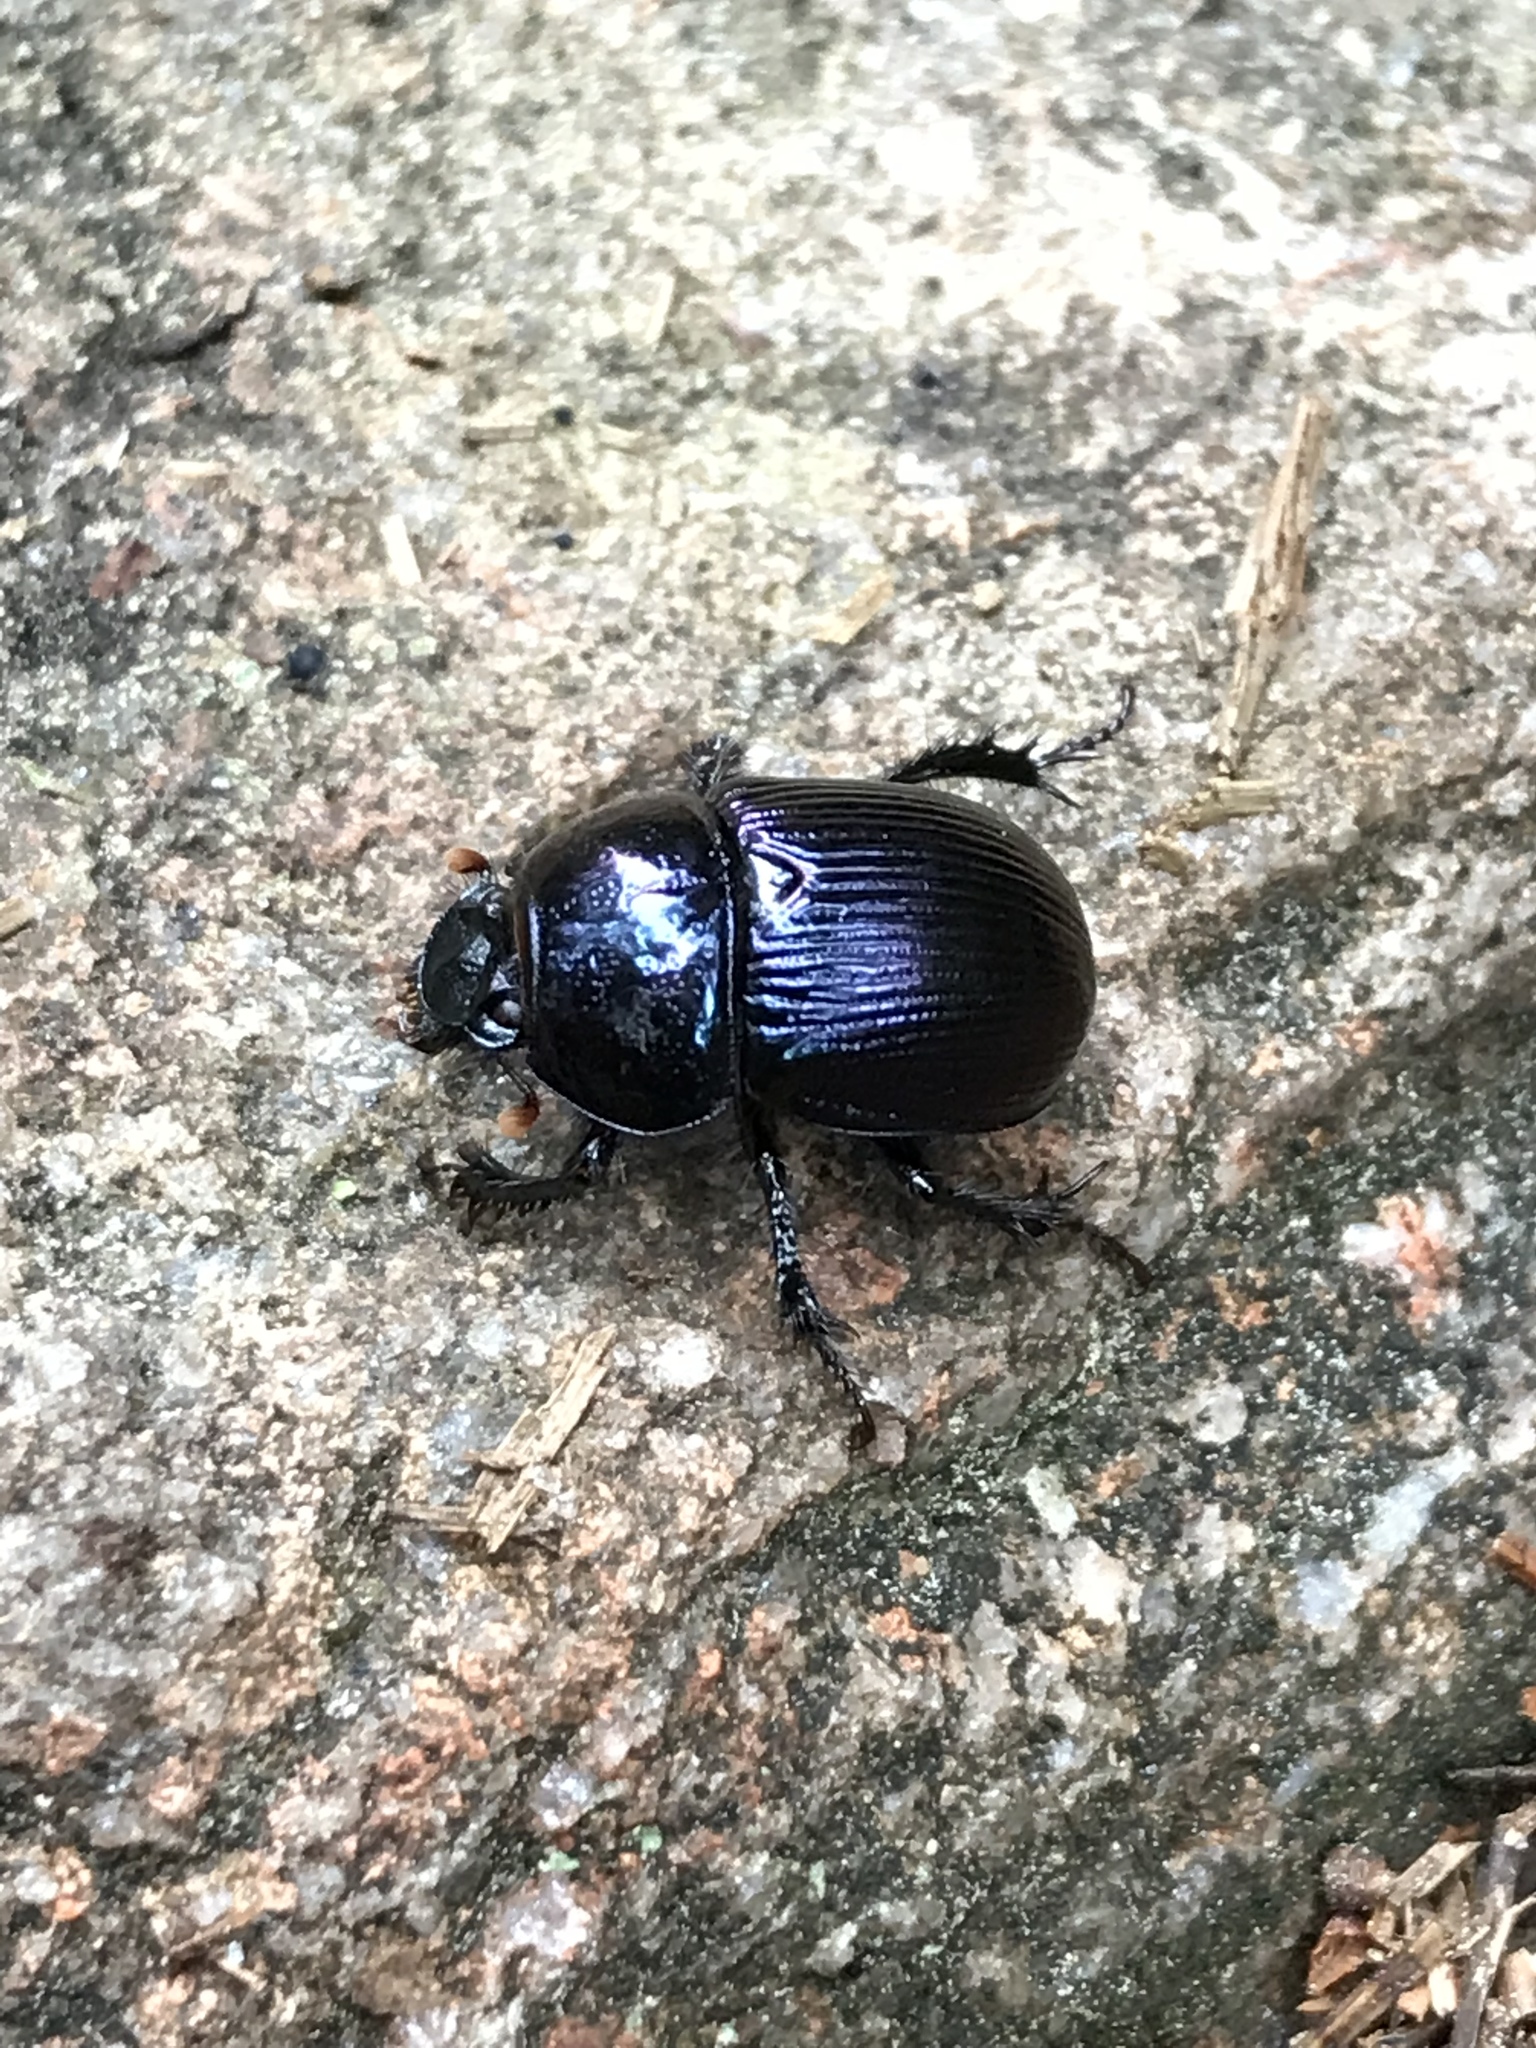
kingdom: Animalia
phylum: Arthropoda
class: Insecta
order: Coleoptera
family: Geotrupidae
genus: Geotrupes
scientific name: Geotrupes splendidus
